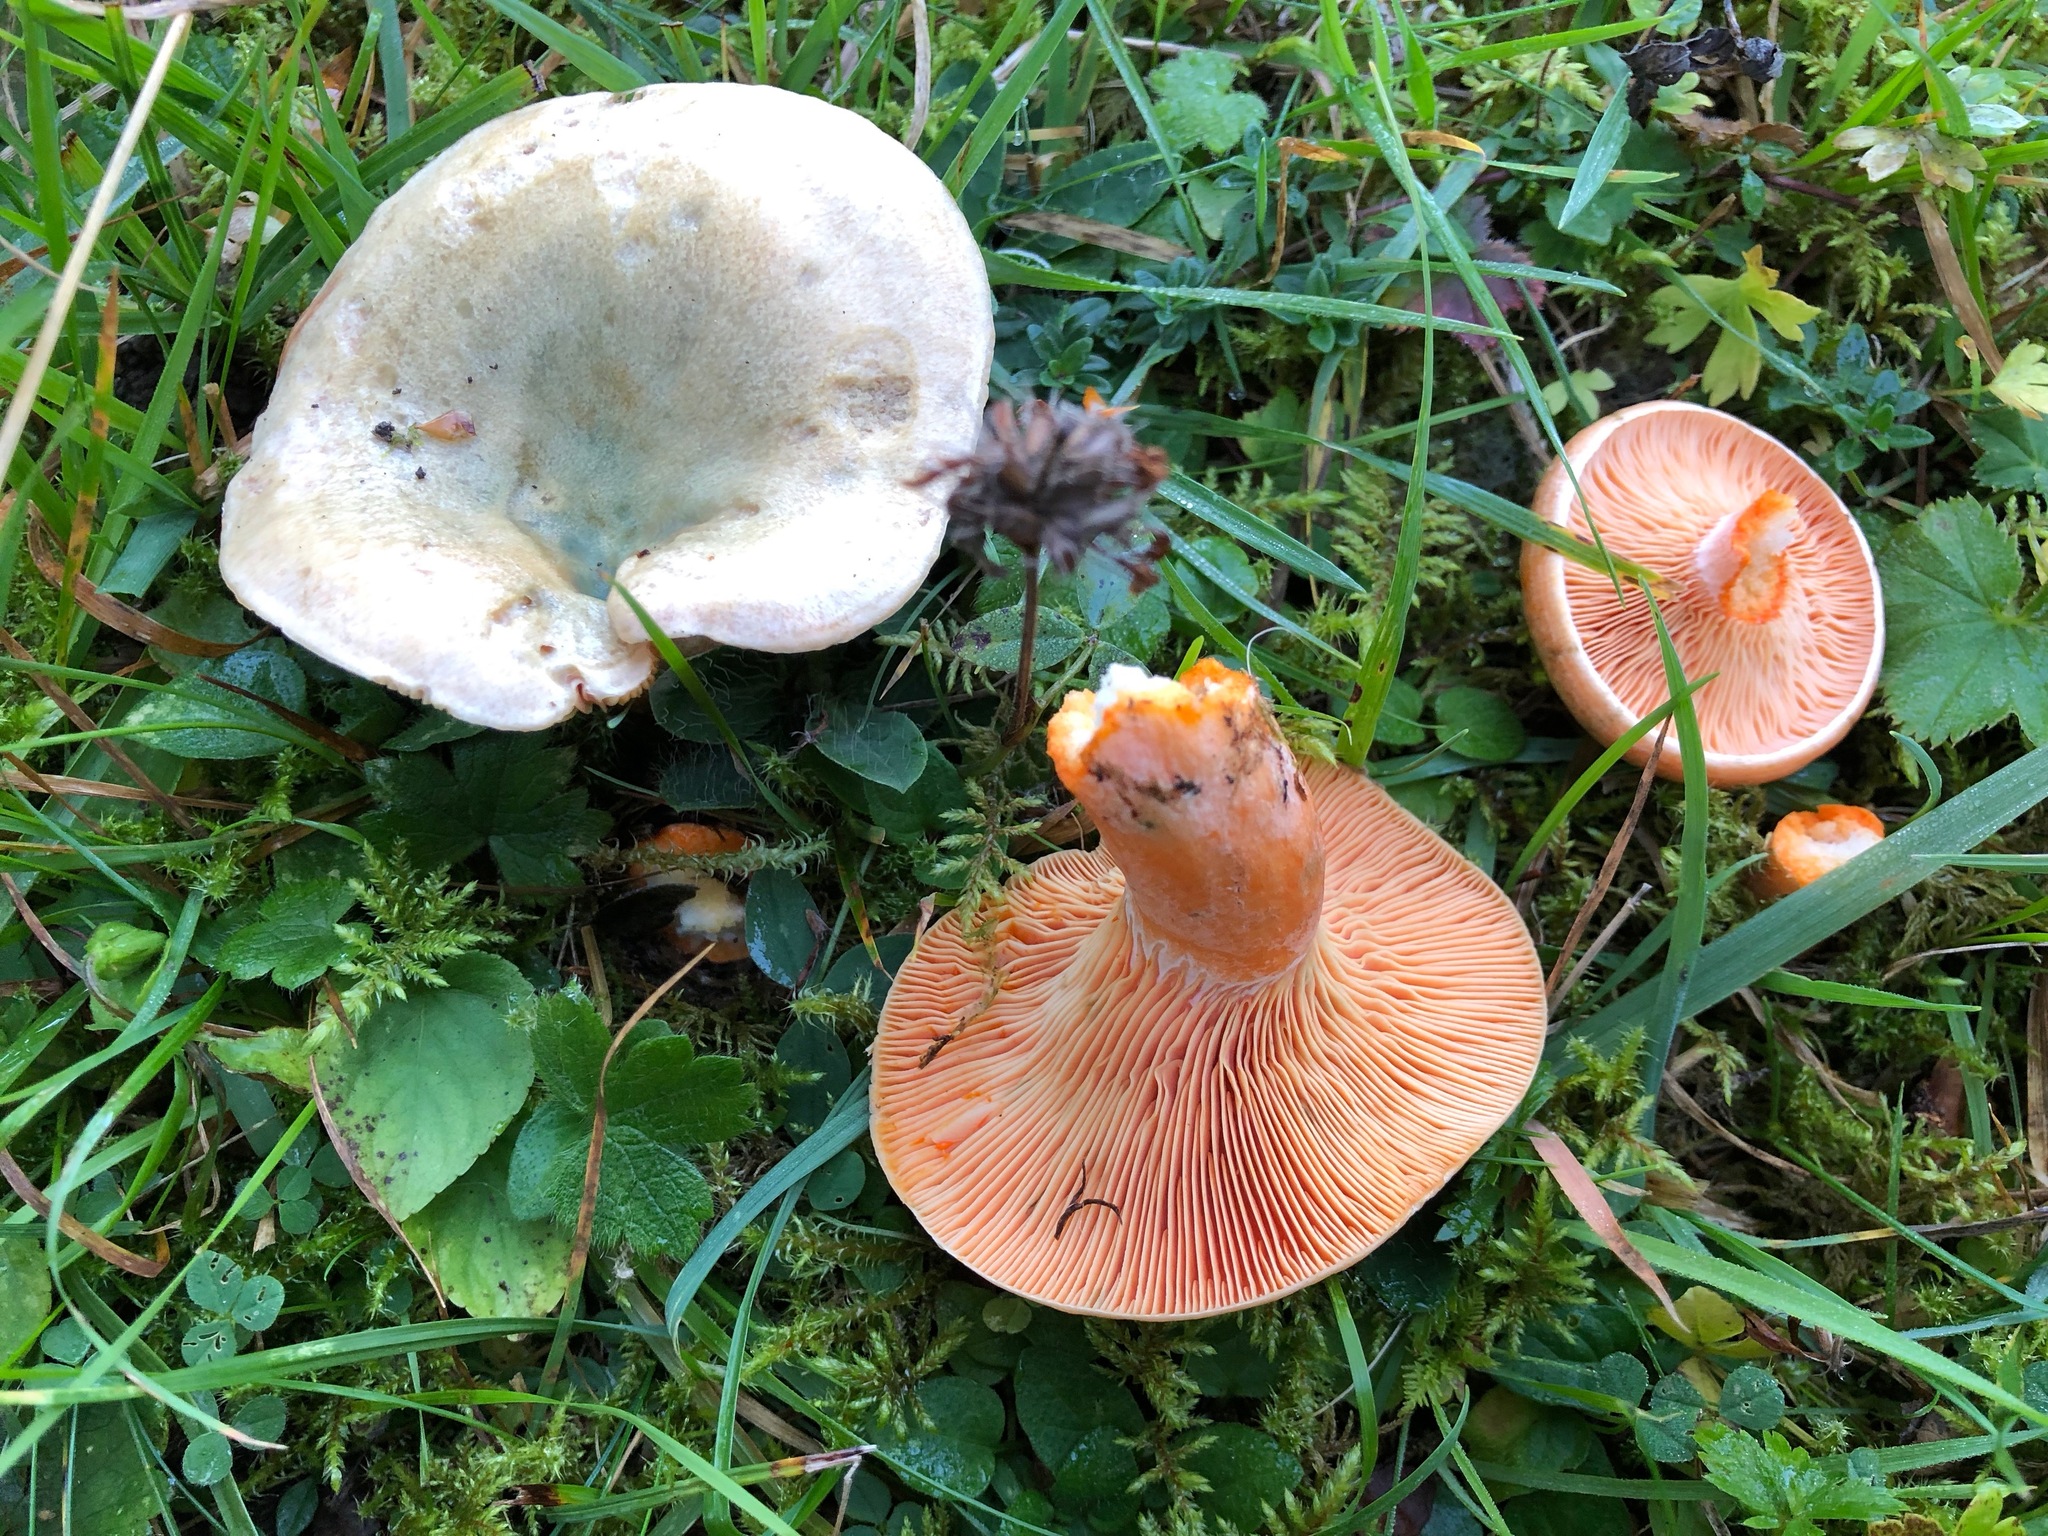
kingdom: Fungi
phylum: Basidiomycota
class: Agaricomycetes
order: Russulales
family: Russulaceae
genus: Lactarius
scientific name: Lactarius deterrimus
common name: False saffron milkcap
